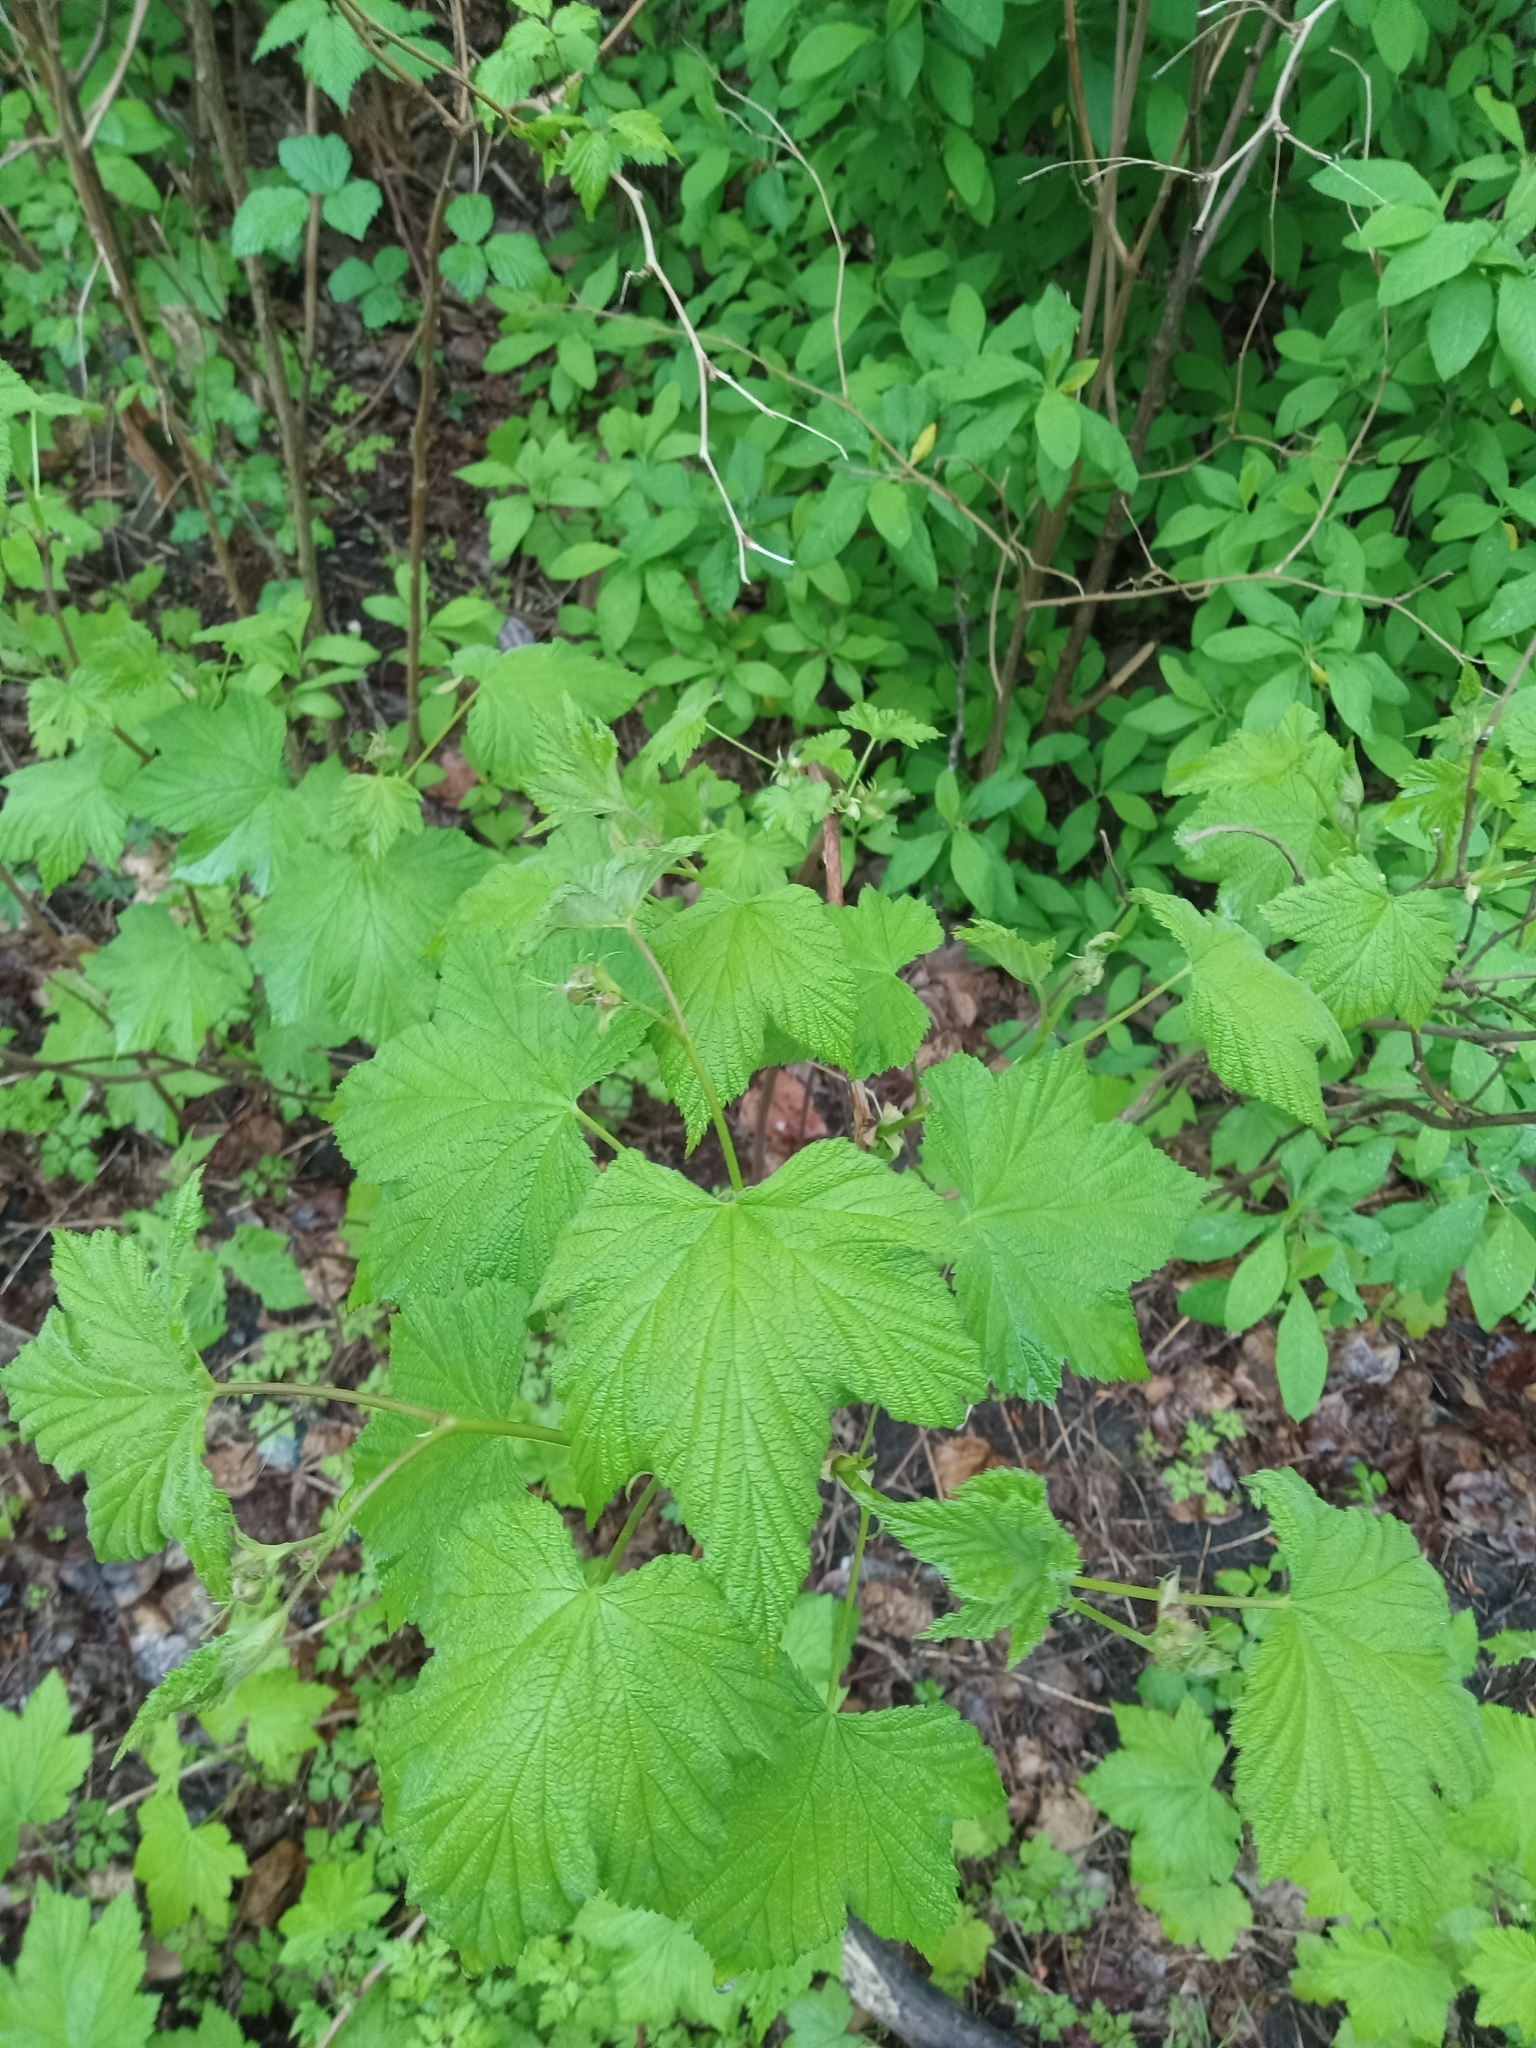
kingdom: Plantae
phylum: Tracheophyta
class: Magnoliopsida
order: Rosales
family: Rosaceae
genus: Rubus
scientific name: Rubus parviflorus
